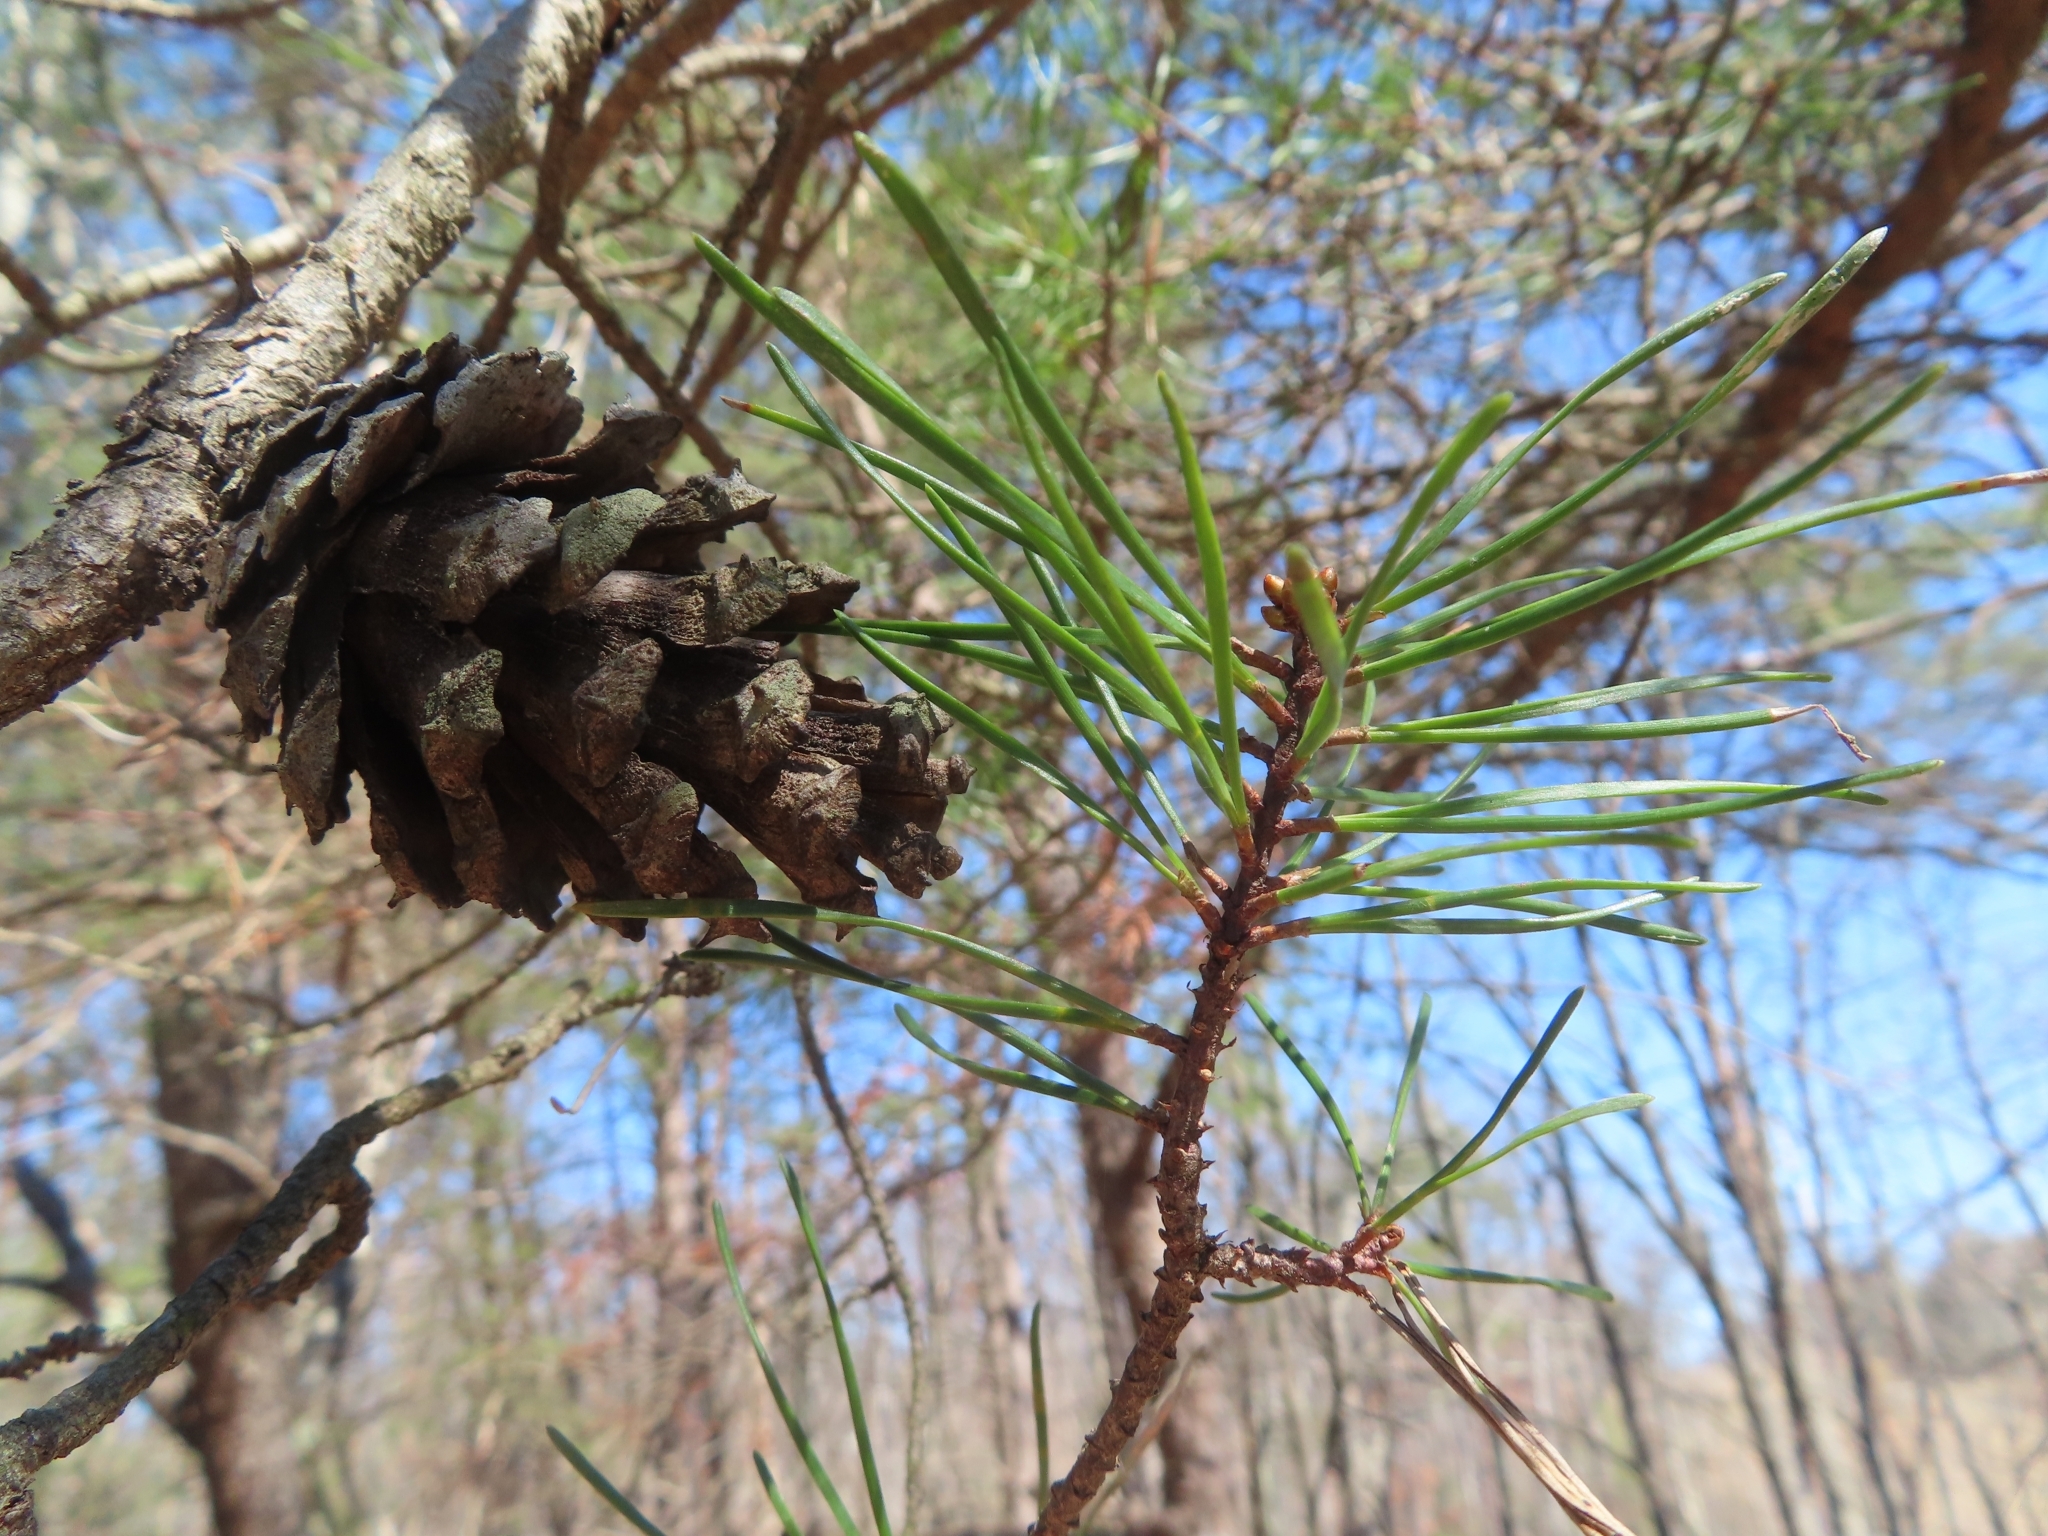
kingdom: Plantae
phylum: Tracheophyta
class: Pinopsida
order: Pinales
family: Pinaceae
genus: Pinus
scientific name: Pinus virginiana
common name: Scrub pine
